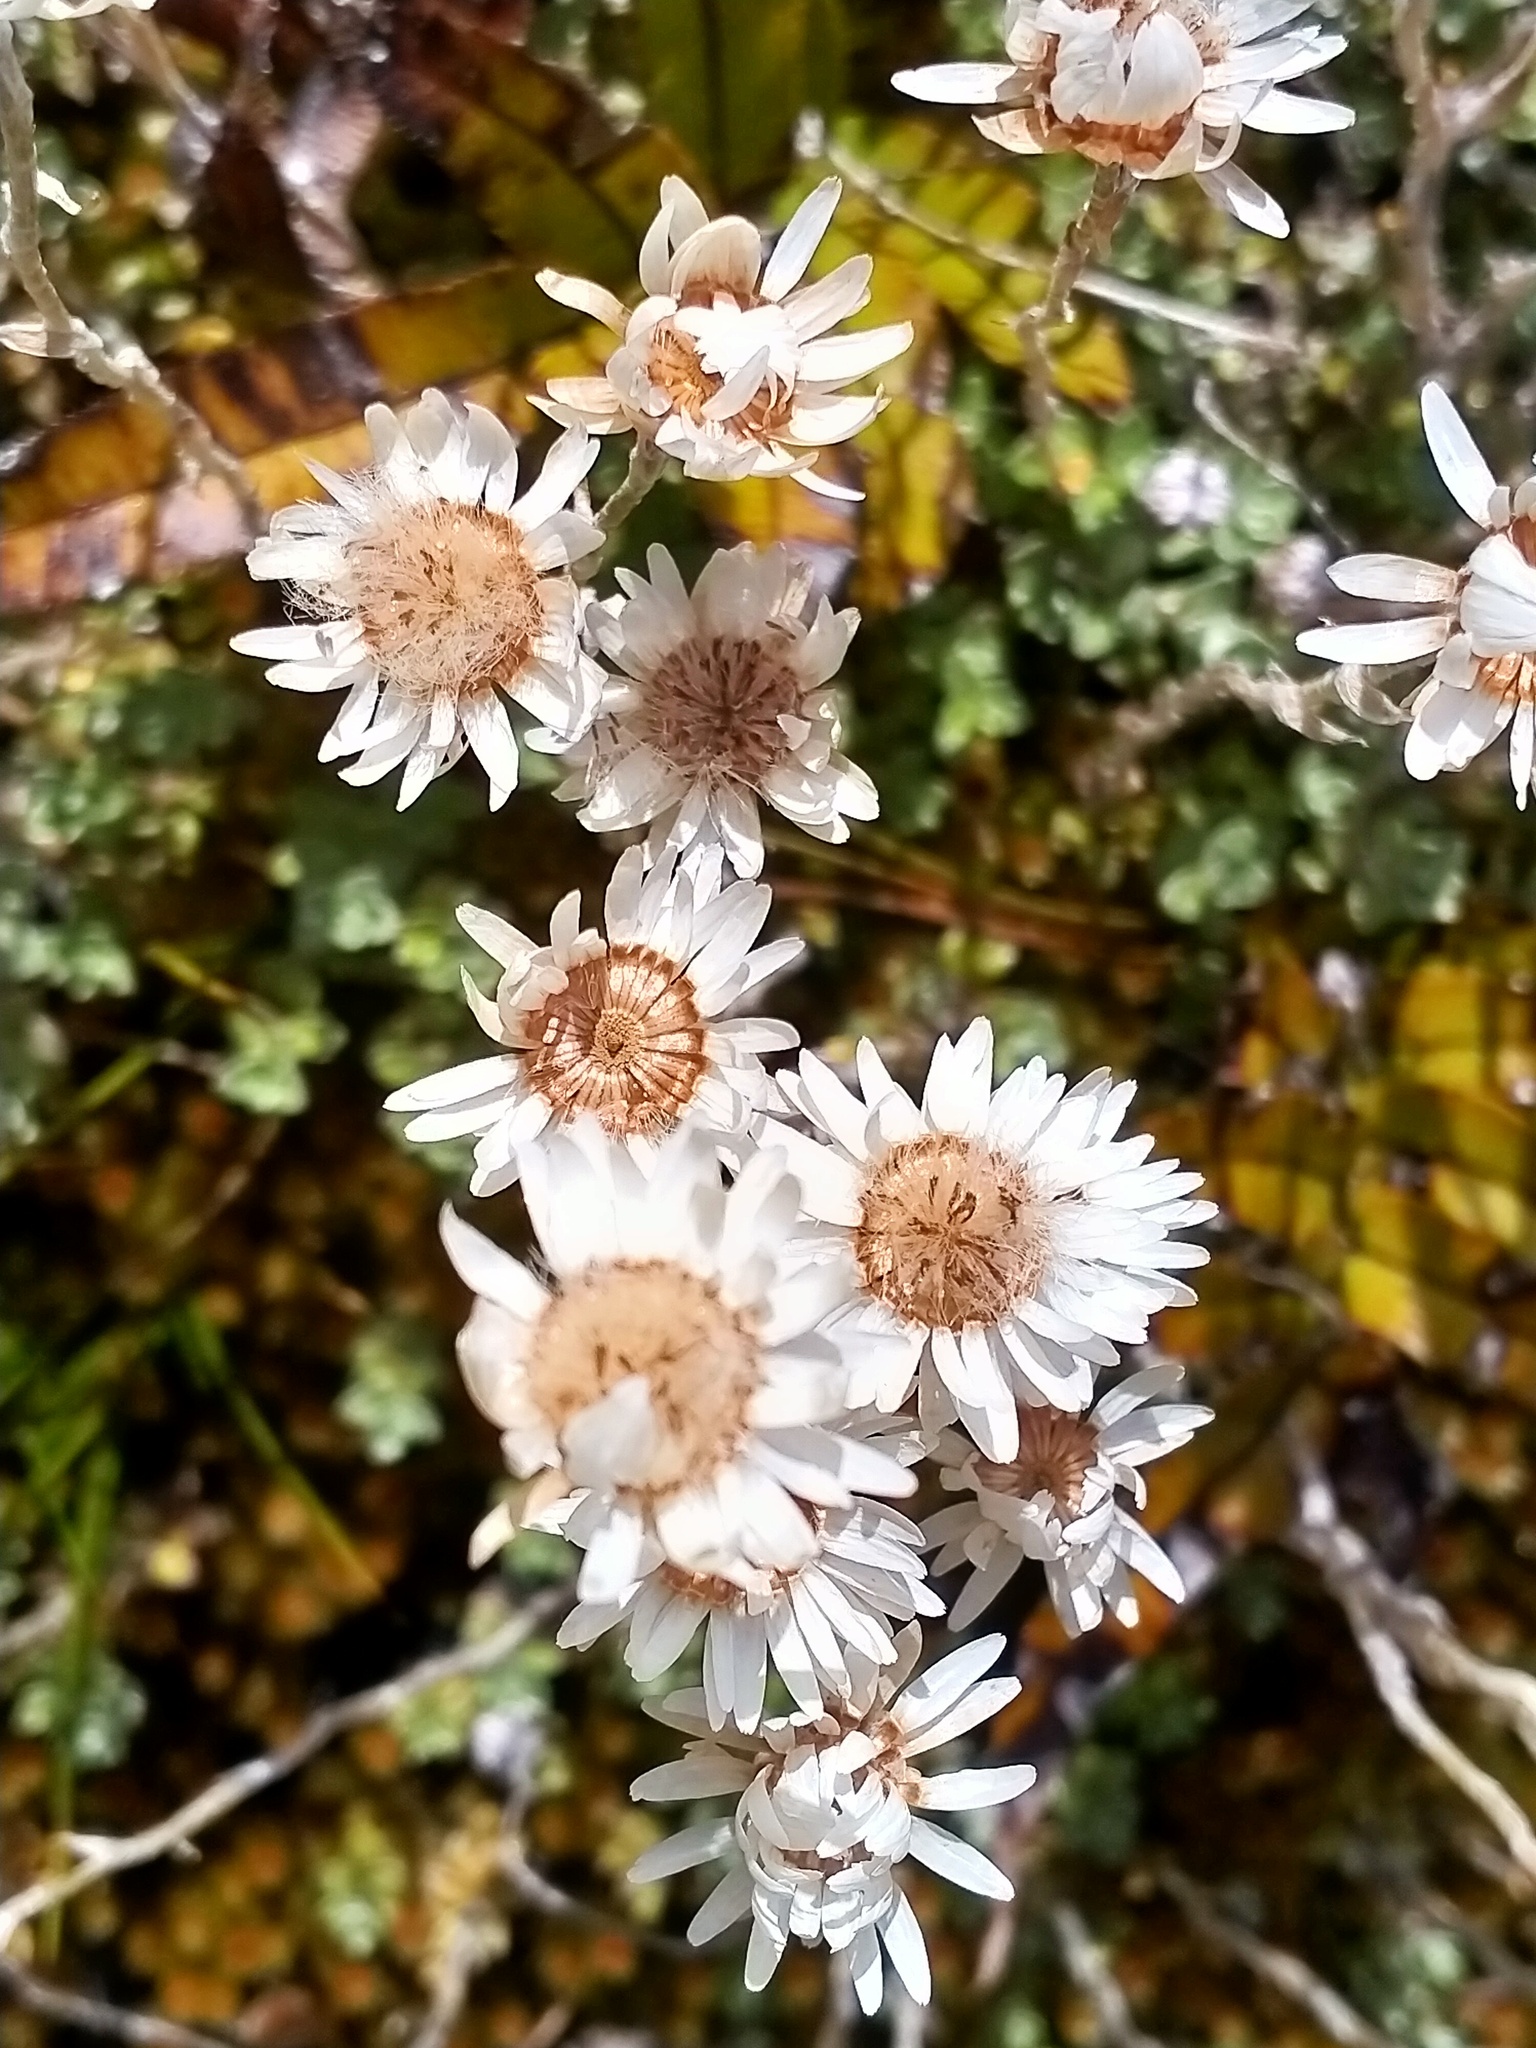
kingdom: Plantae
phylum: Tracheophyta
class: Magnoliopsida
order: Asterales
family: Asteraceae
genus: Anaphalioides
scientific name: Anaphalioides bellidioides
